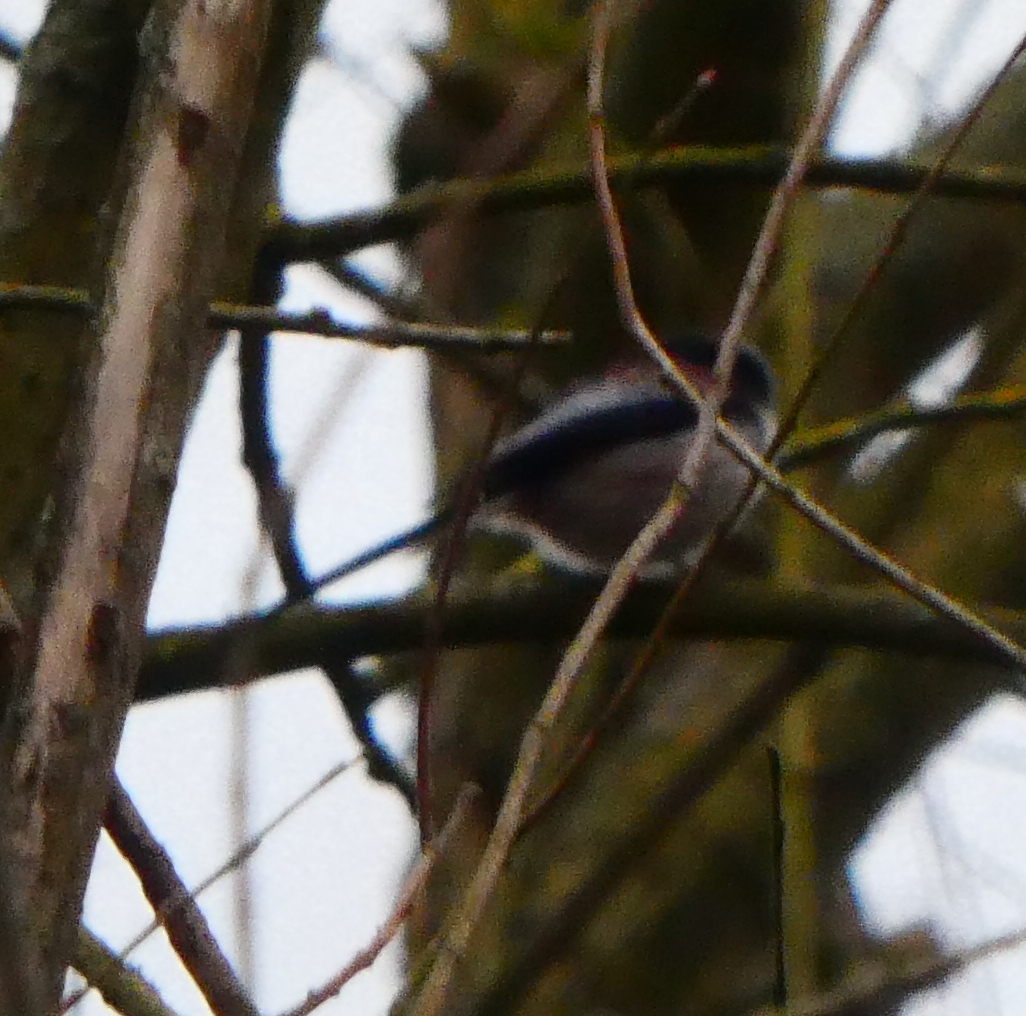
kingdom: Animalia
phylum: Chordata
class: Aves
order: Passeriformes
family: Aegithalidae
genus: Aegithalos
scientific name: Aegithalos caudatus
